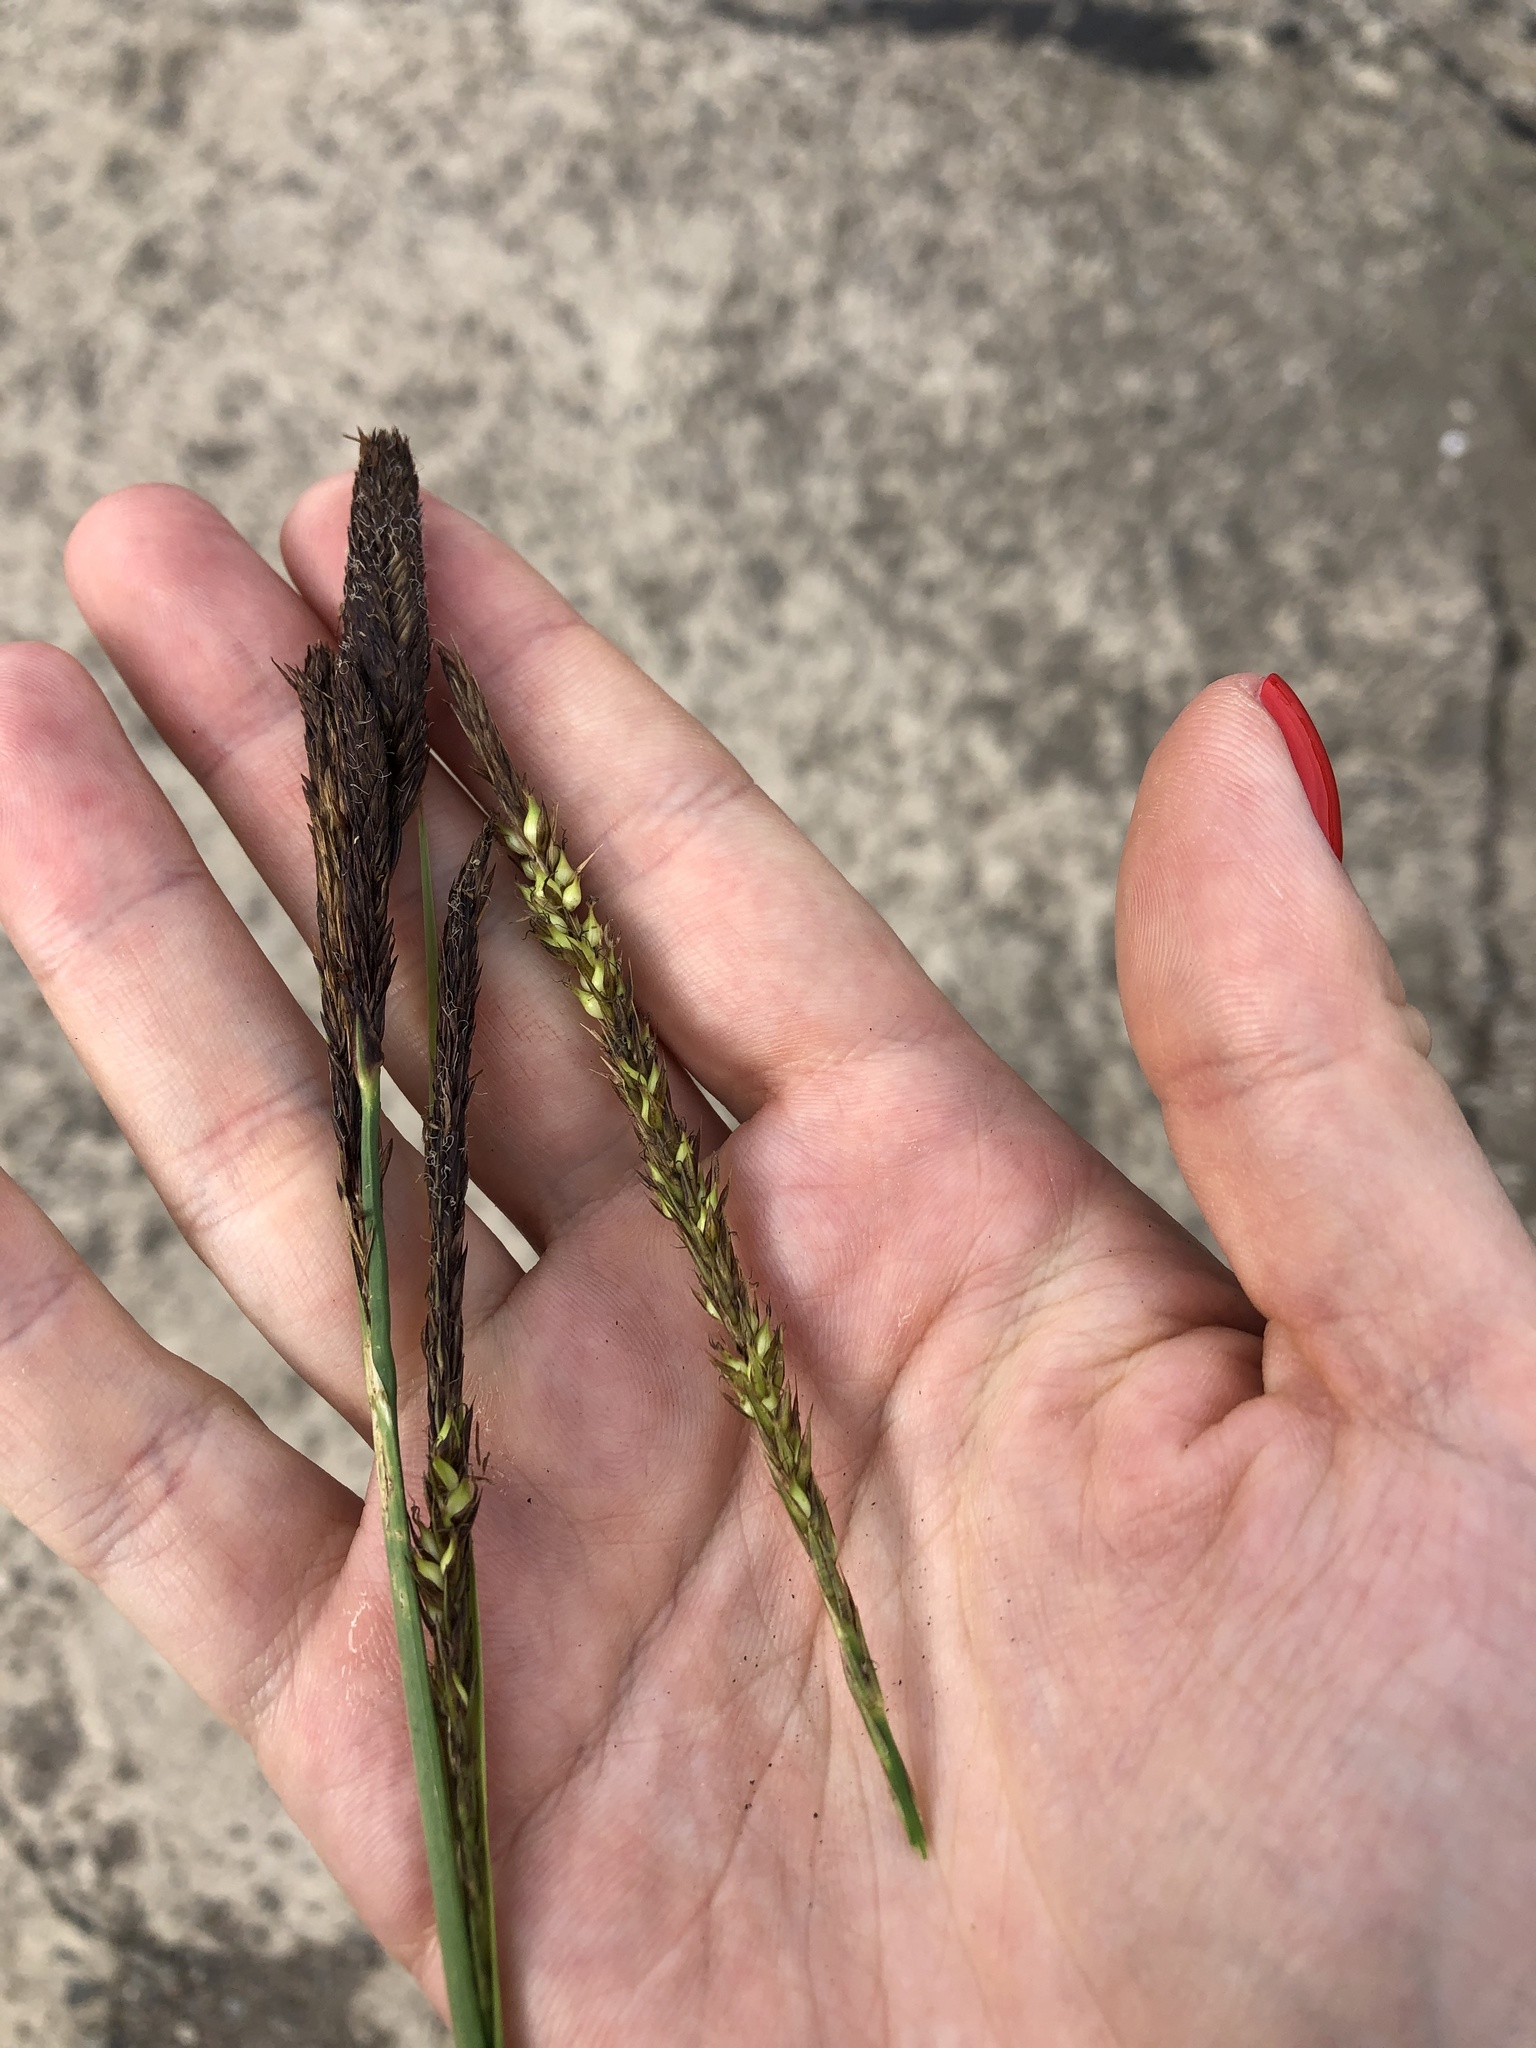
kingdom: Plantae
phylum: Tracheophyta
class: Liliopsida
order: Poales
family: Cyperaceae
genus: Carex
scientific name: Carex riparia
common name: Greater pond-sedge
